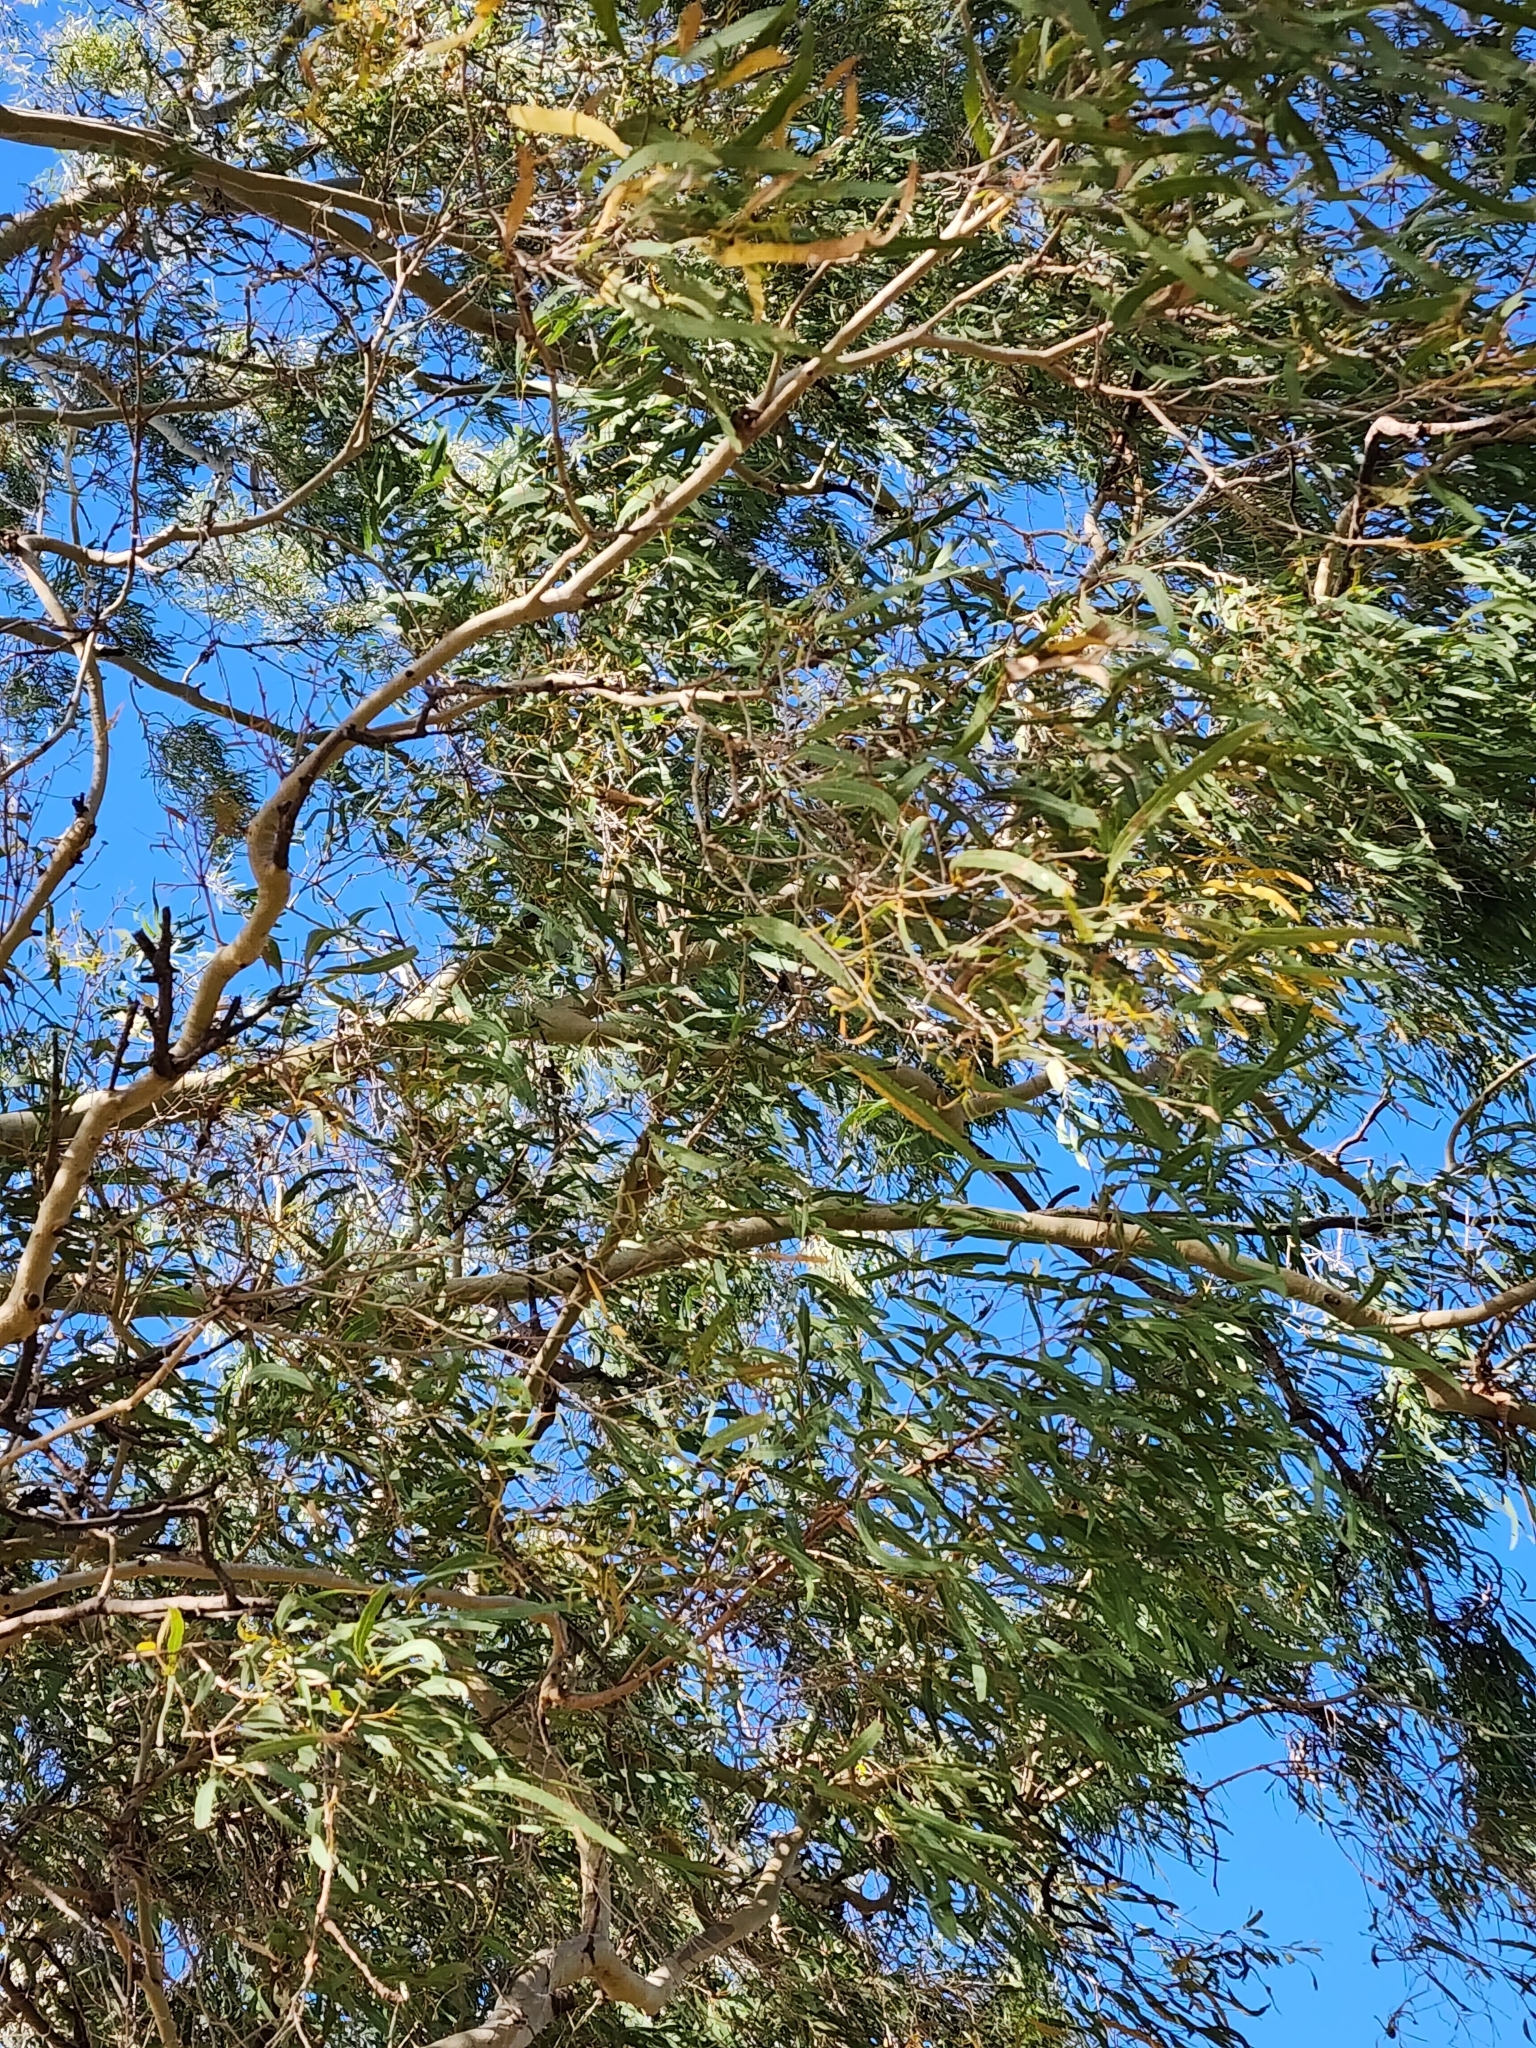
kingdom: Plantae
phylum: Tracheophyta
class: Magnoliopsida
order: Myrtales
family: Myrtaceae
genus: Corymbia
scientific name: Corymbia tessellaris
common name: Carbeen
